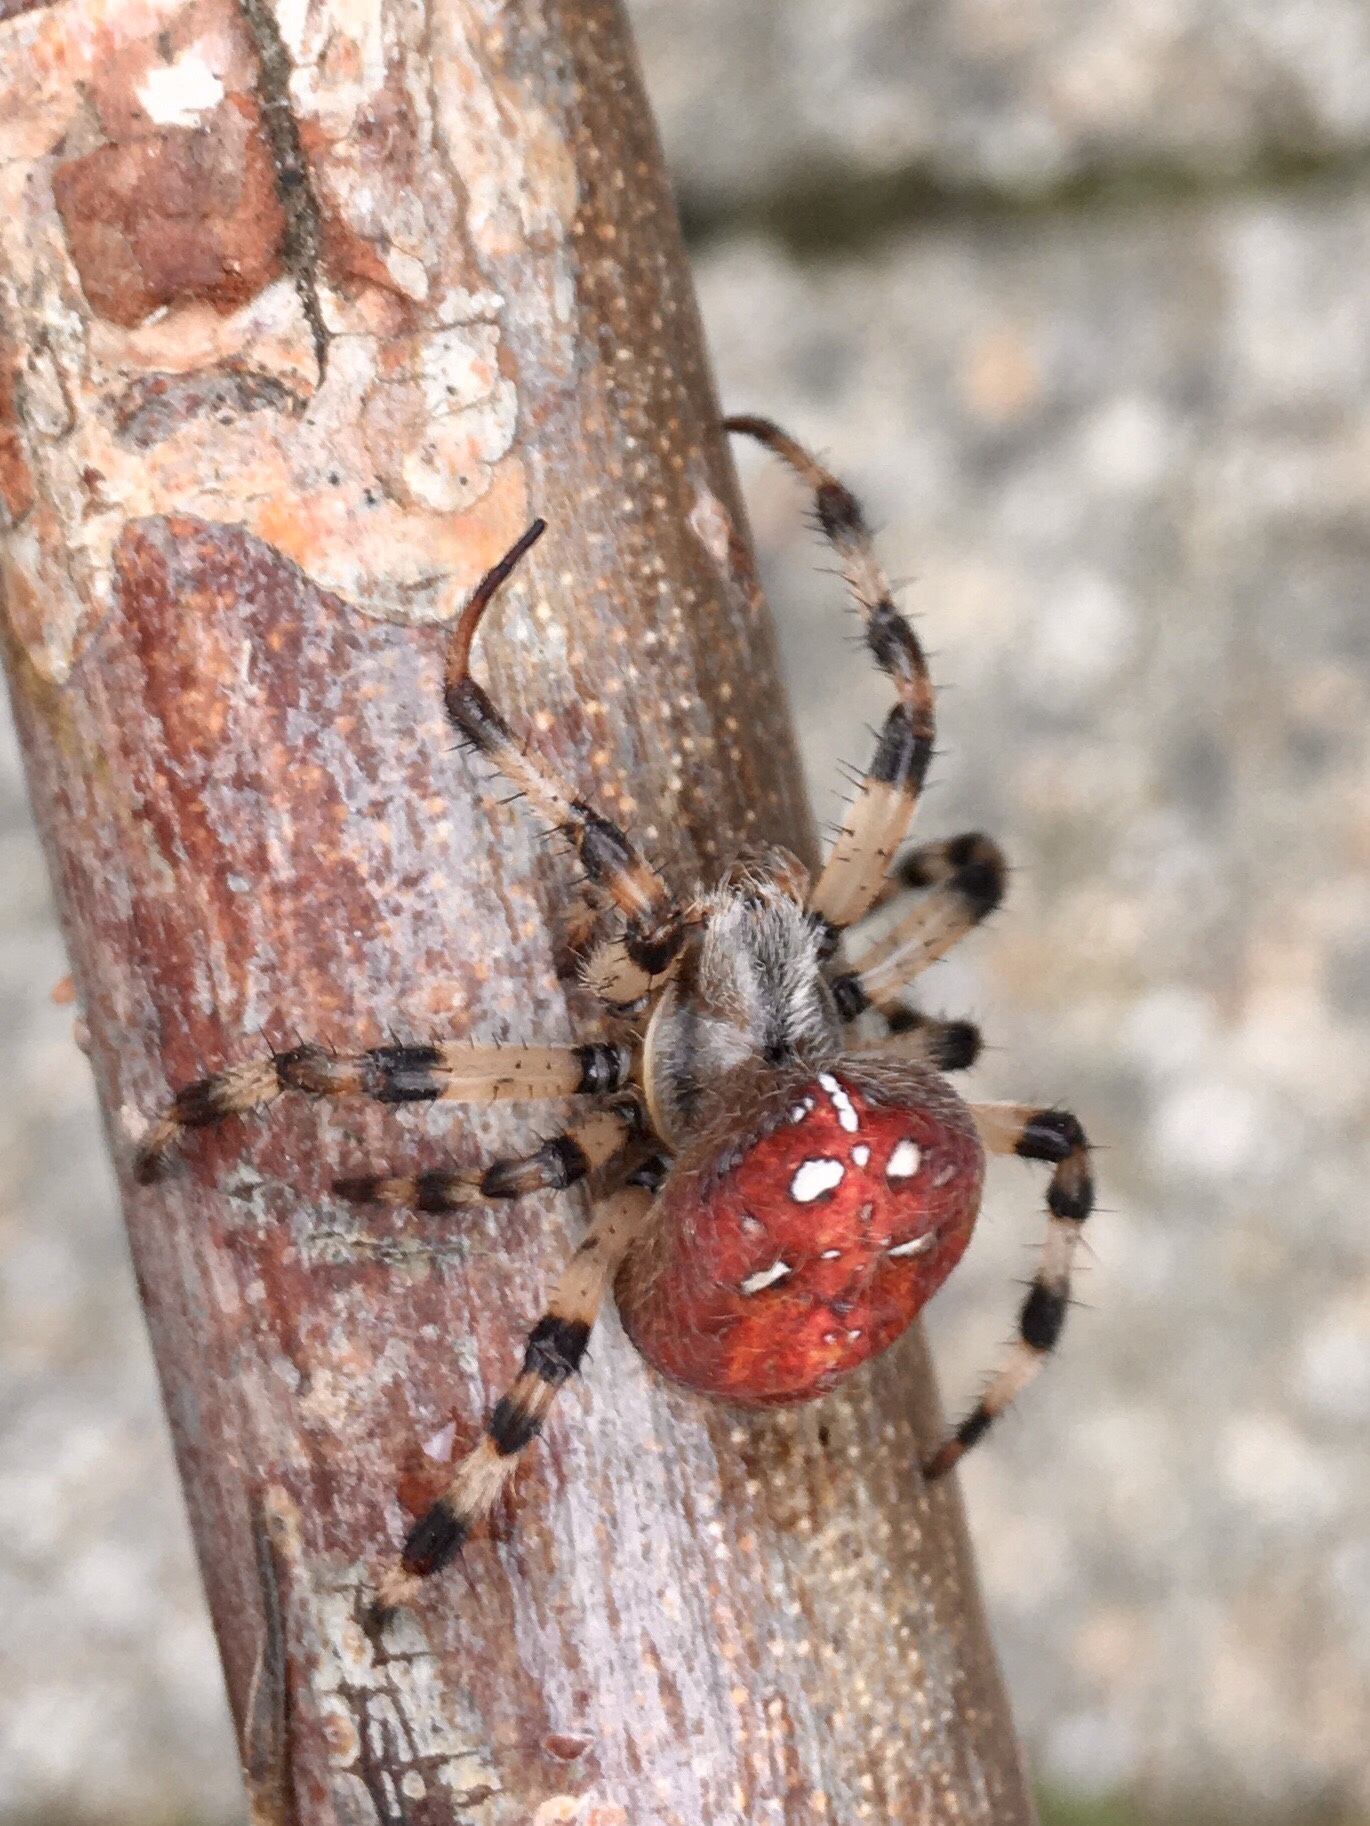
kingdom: Animalia
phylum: Arthropoda
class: Arachnida
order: Araneae
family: Araneidae
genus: Araneus
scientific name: Araneus quadratus
